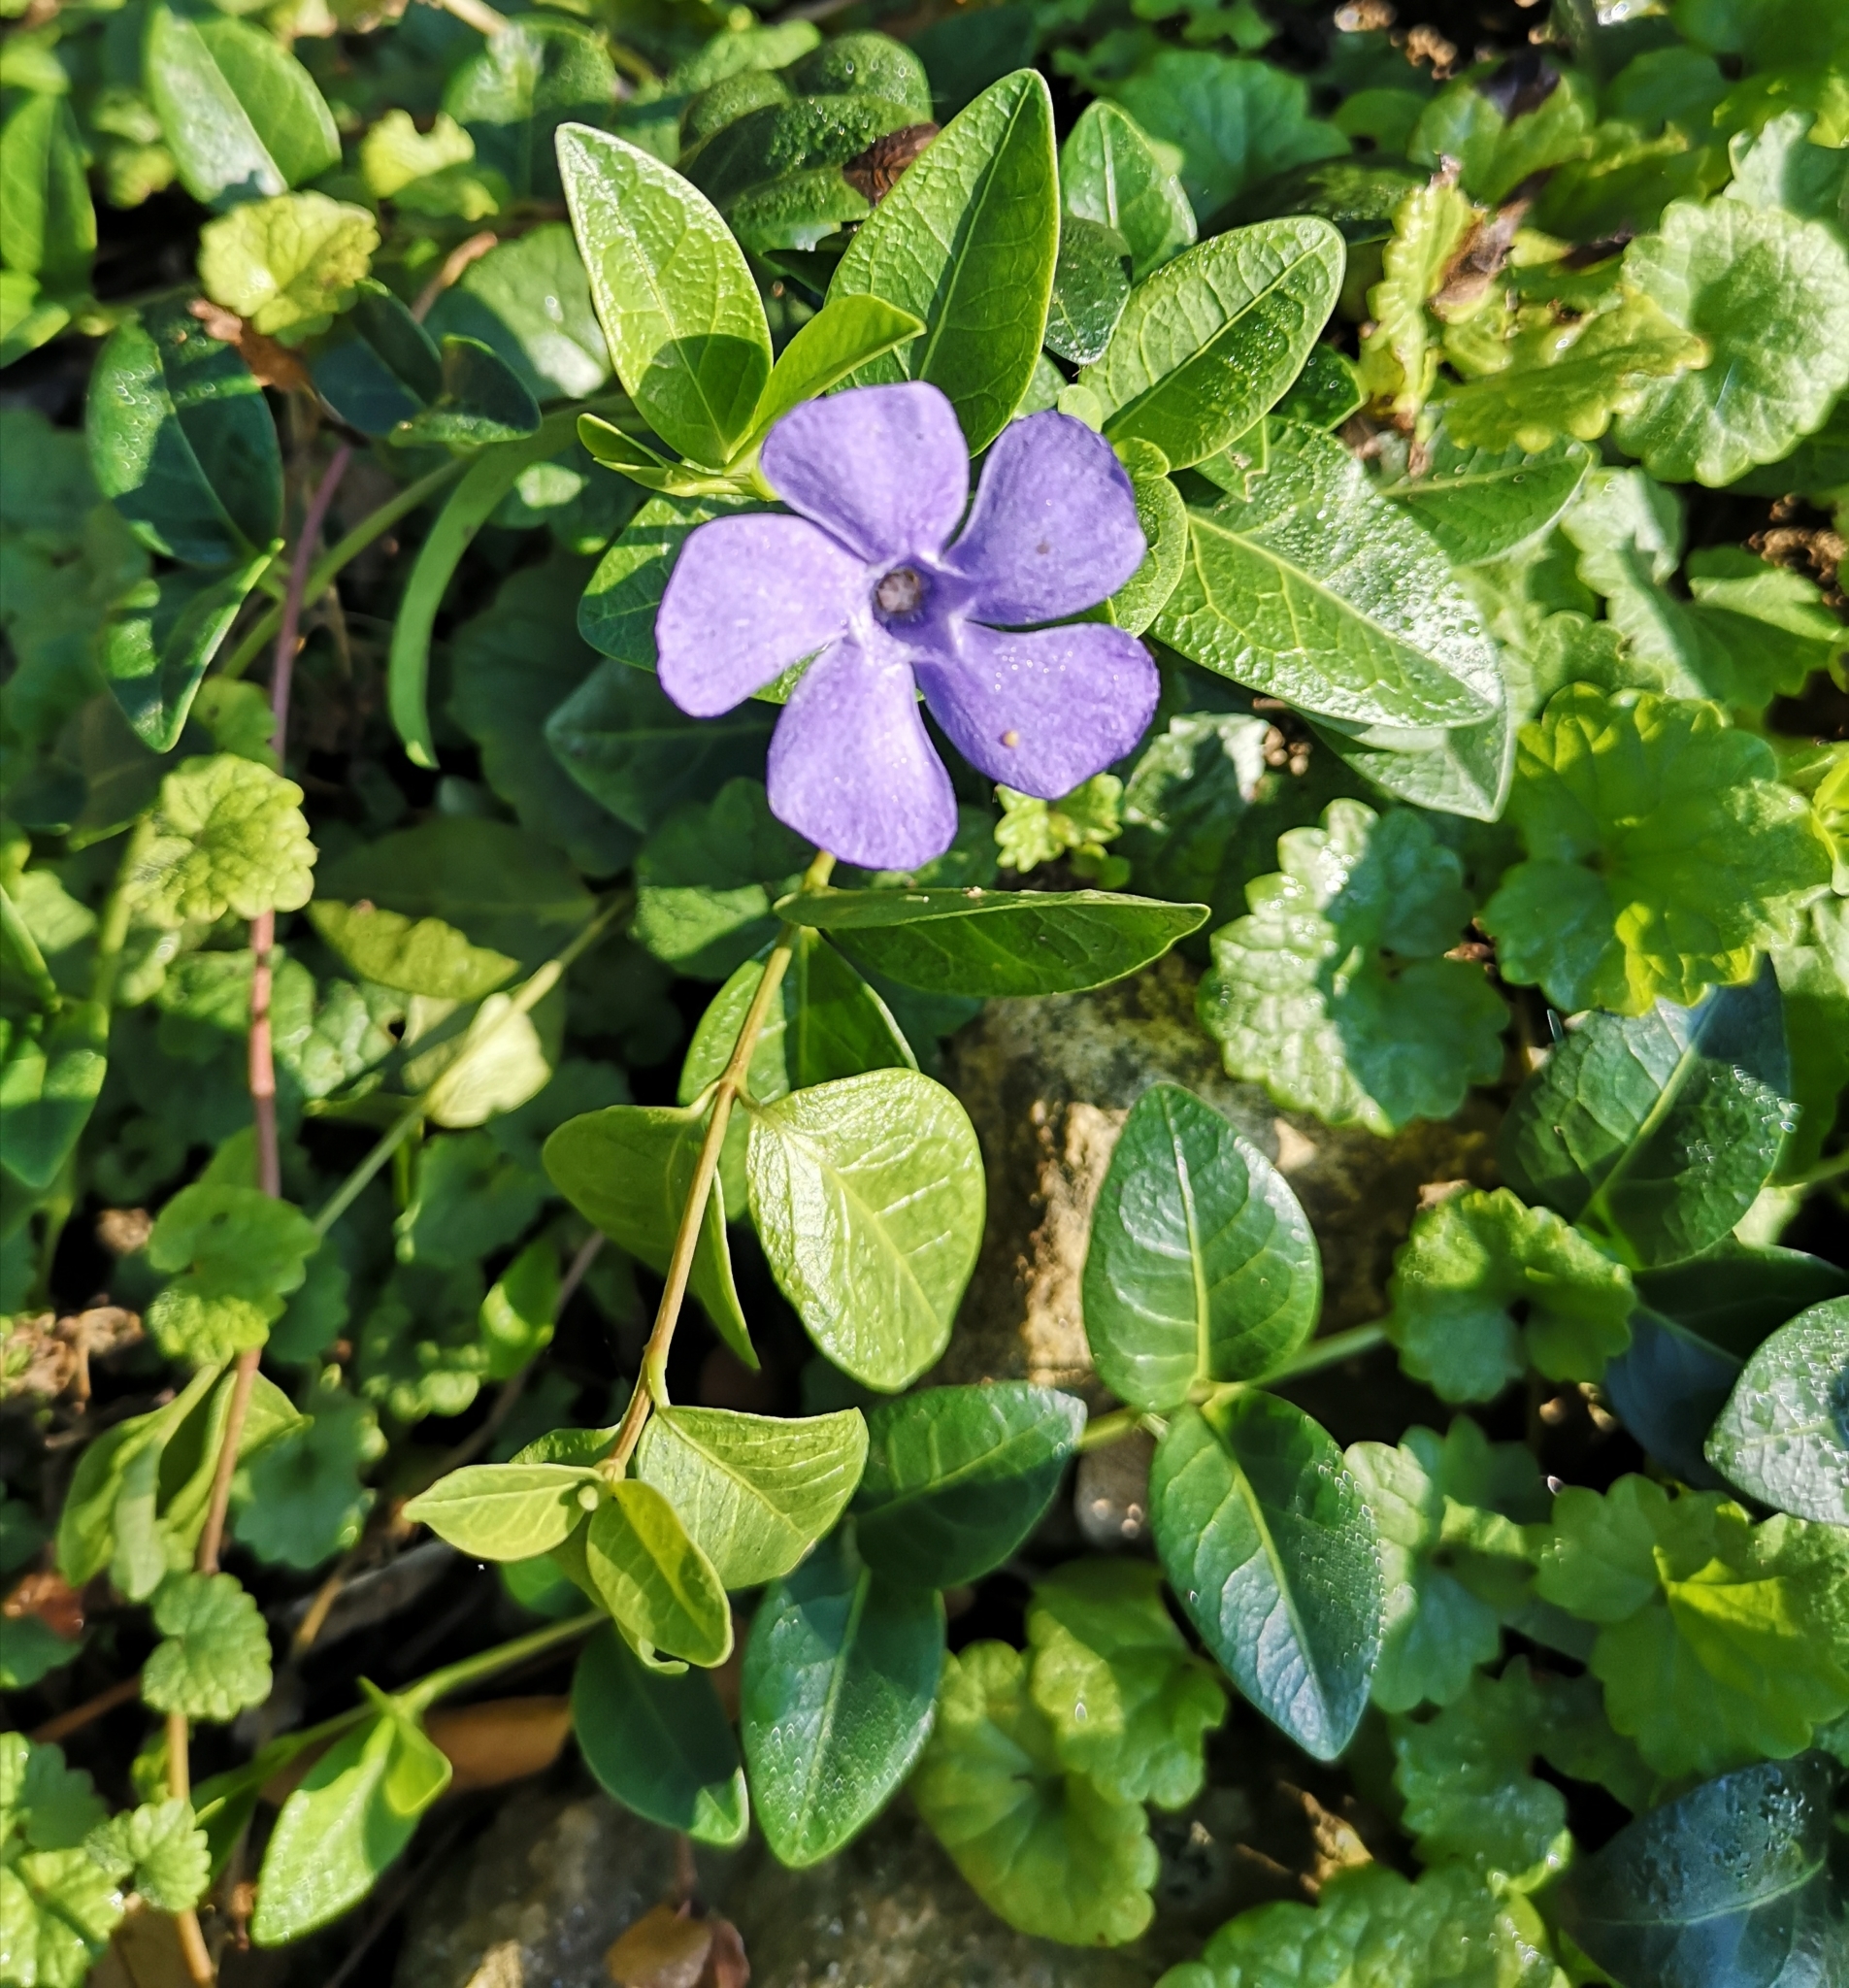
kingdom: Plantae
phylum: Tracheophyta
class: Magnoliopsida
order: Gentianales
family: Apocynaceae
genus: Vinca
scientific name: Vinca minor
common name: Lesser periwinkle
